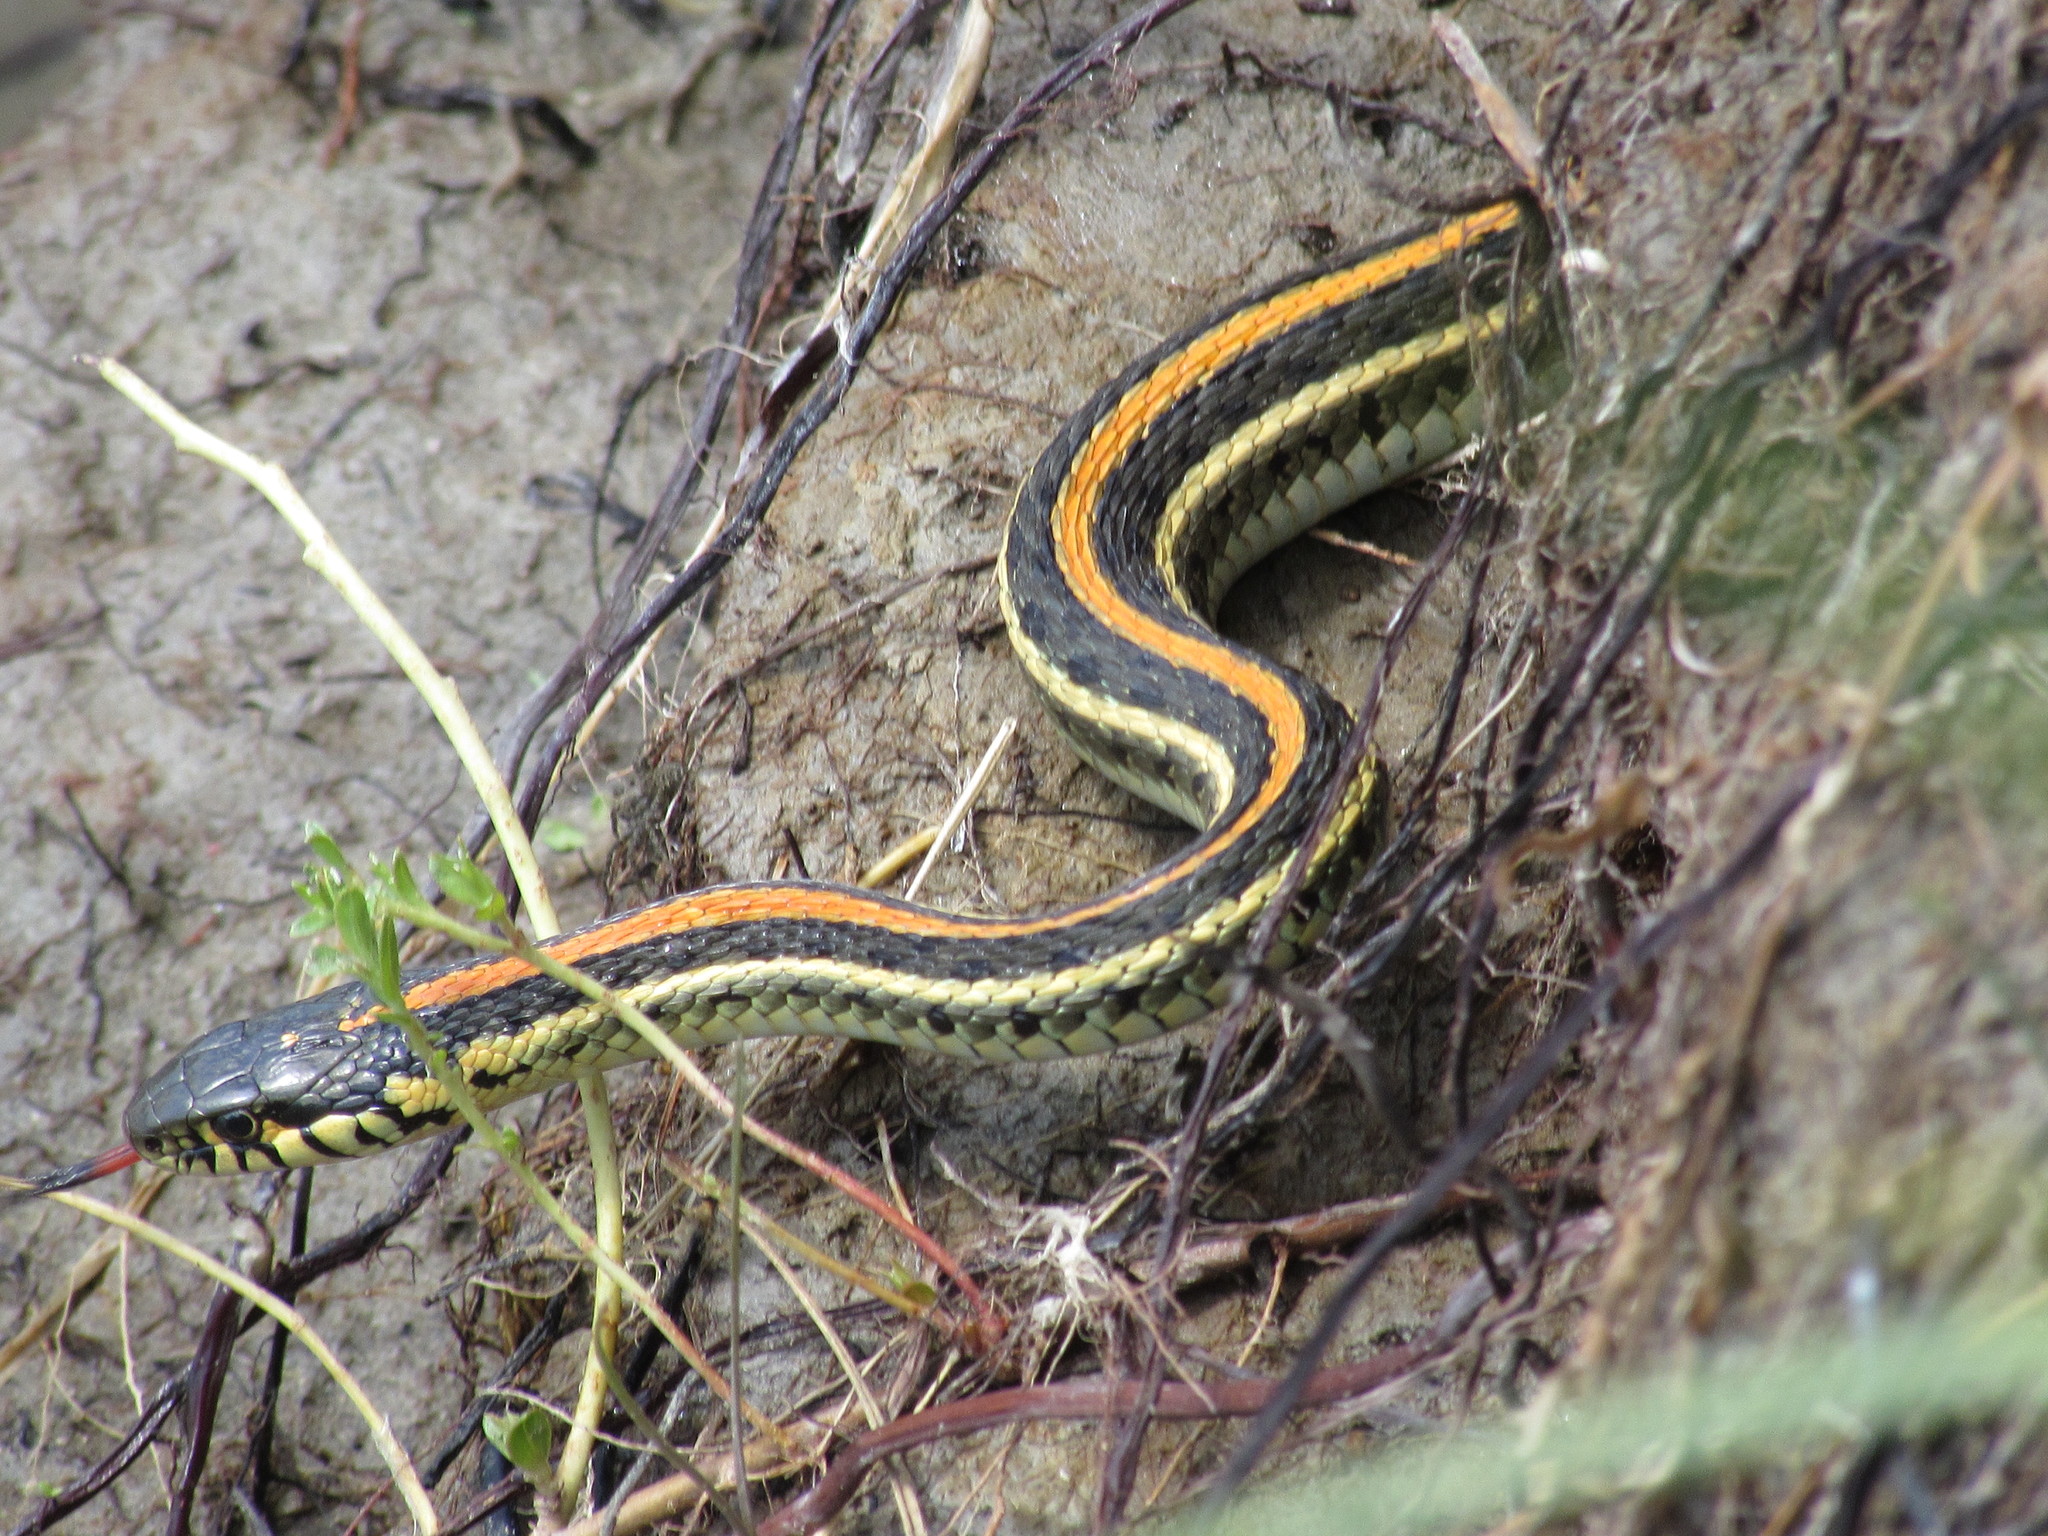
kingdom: Animalia
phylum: Chordata
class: Squamata
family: Colubridae
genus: Thamnophis
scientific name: Thamnophis radix
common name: Plains garter snake
